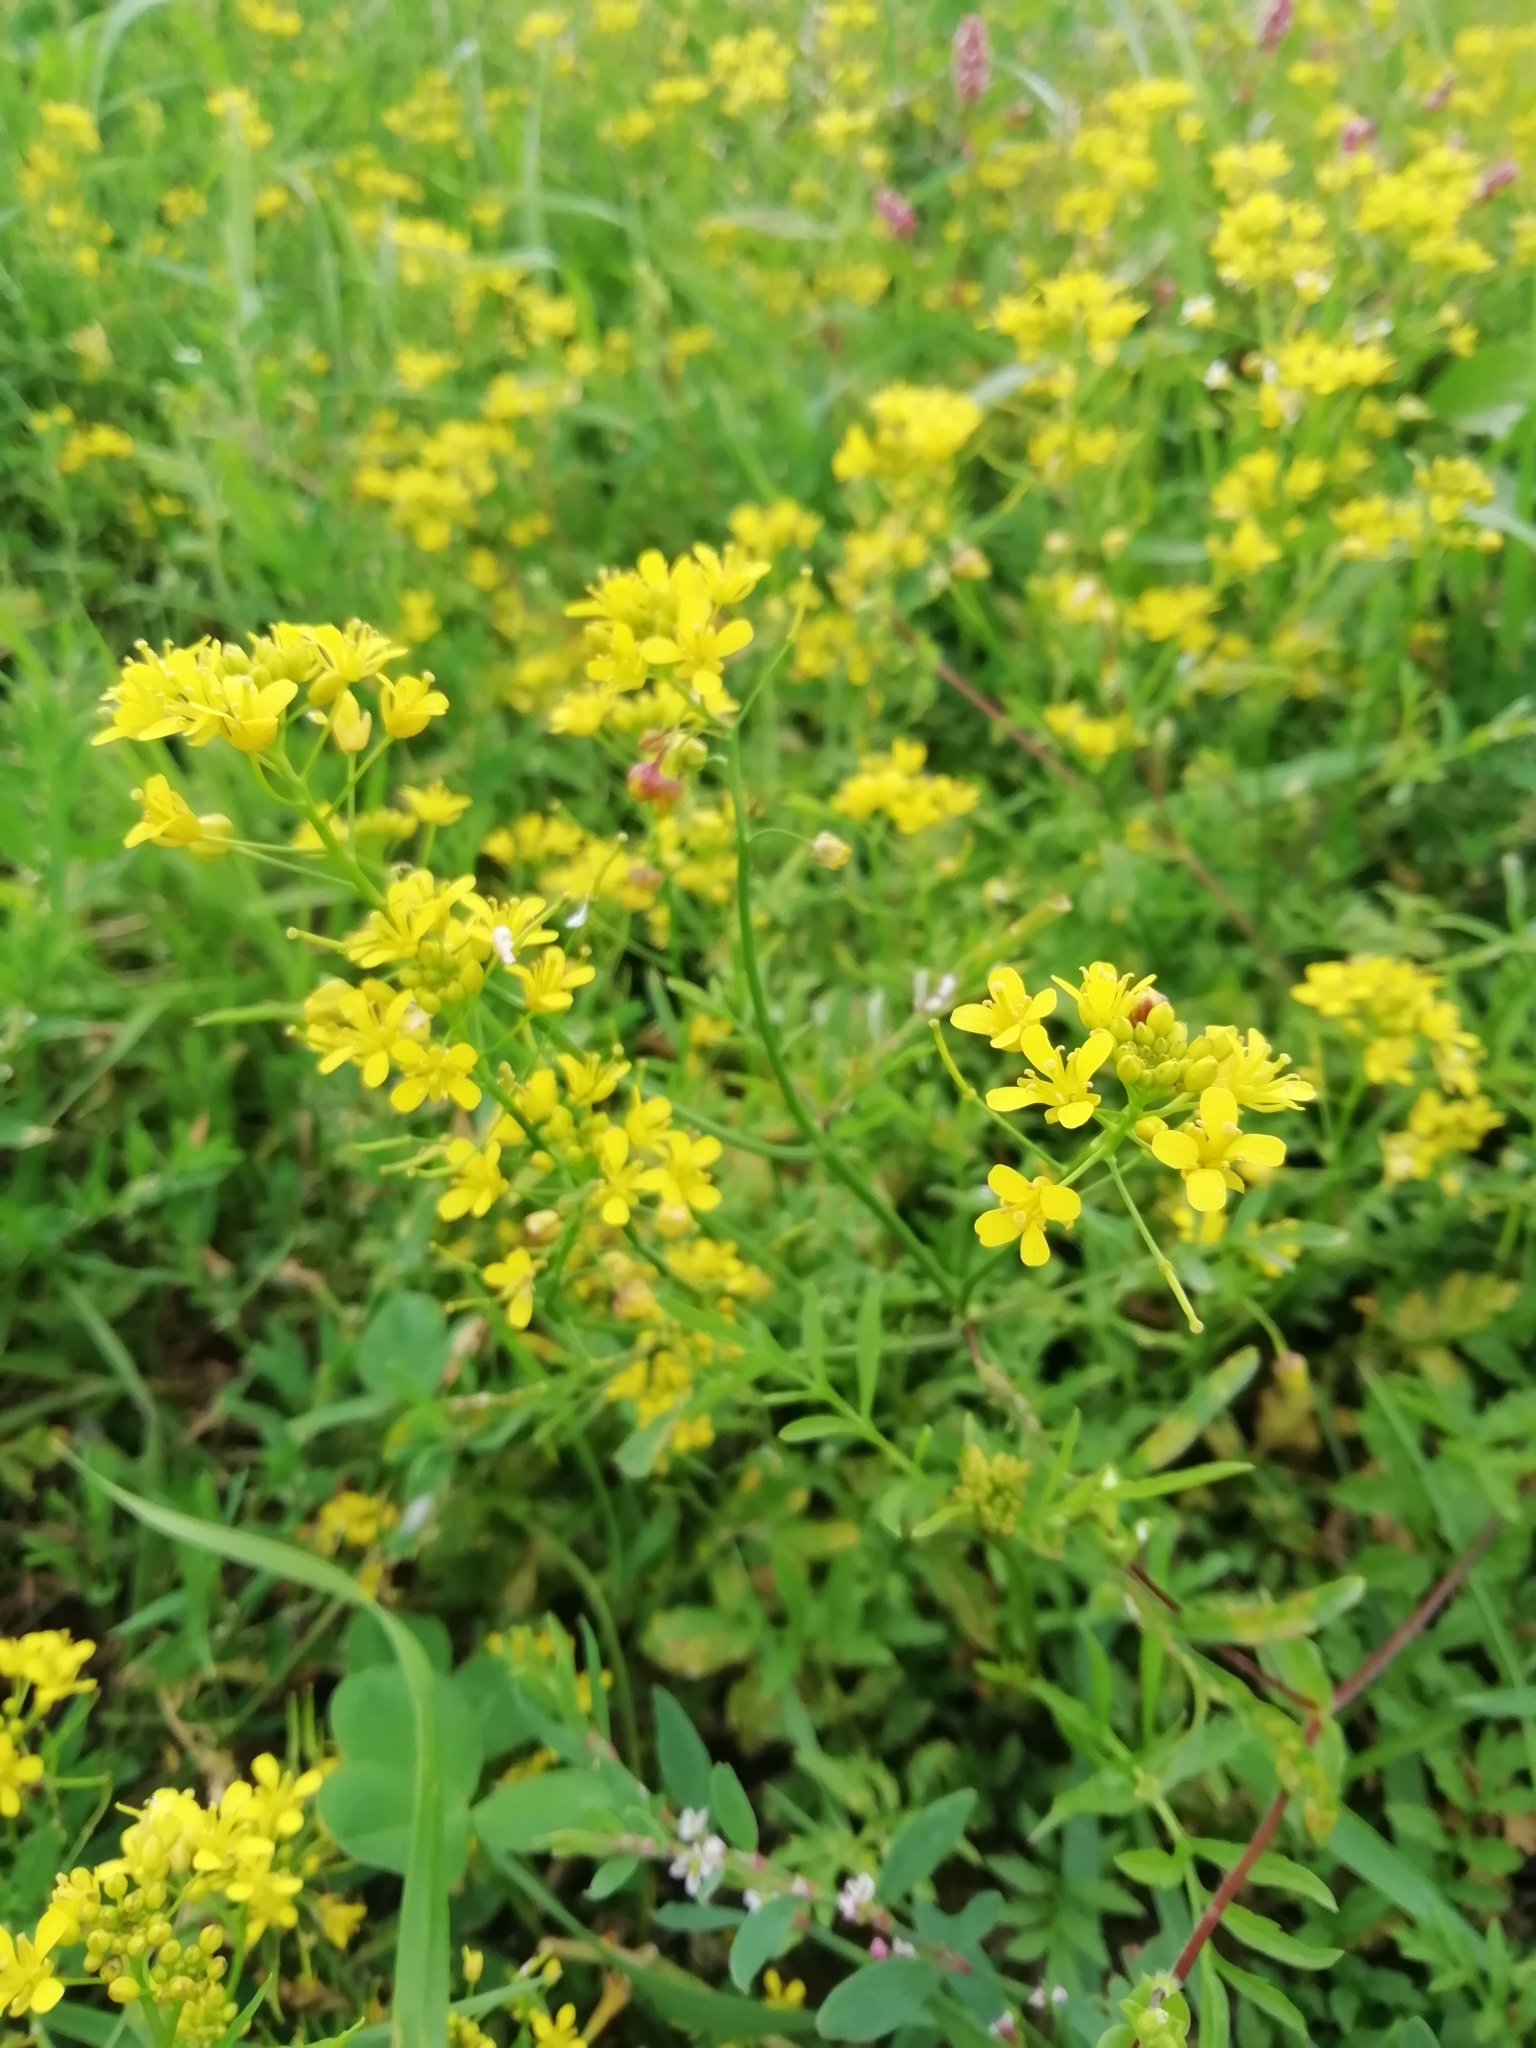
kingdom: Plantae
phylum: Tracheophyta
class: Magnoliopsida
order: Brassicales
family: Brassicaceae
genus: Rorippa
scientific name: Rorippa sylvestris
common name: Creeping yellowcress
